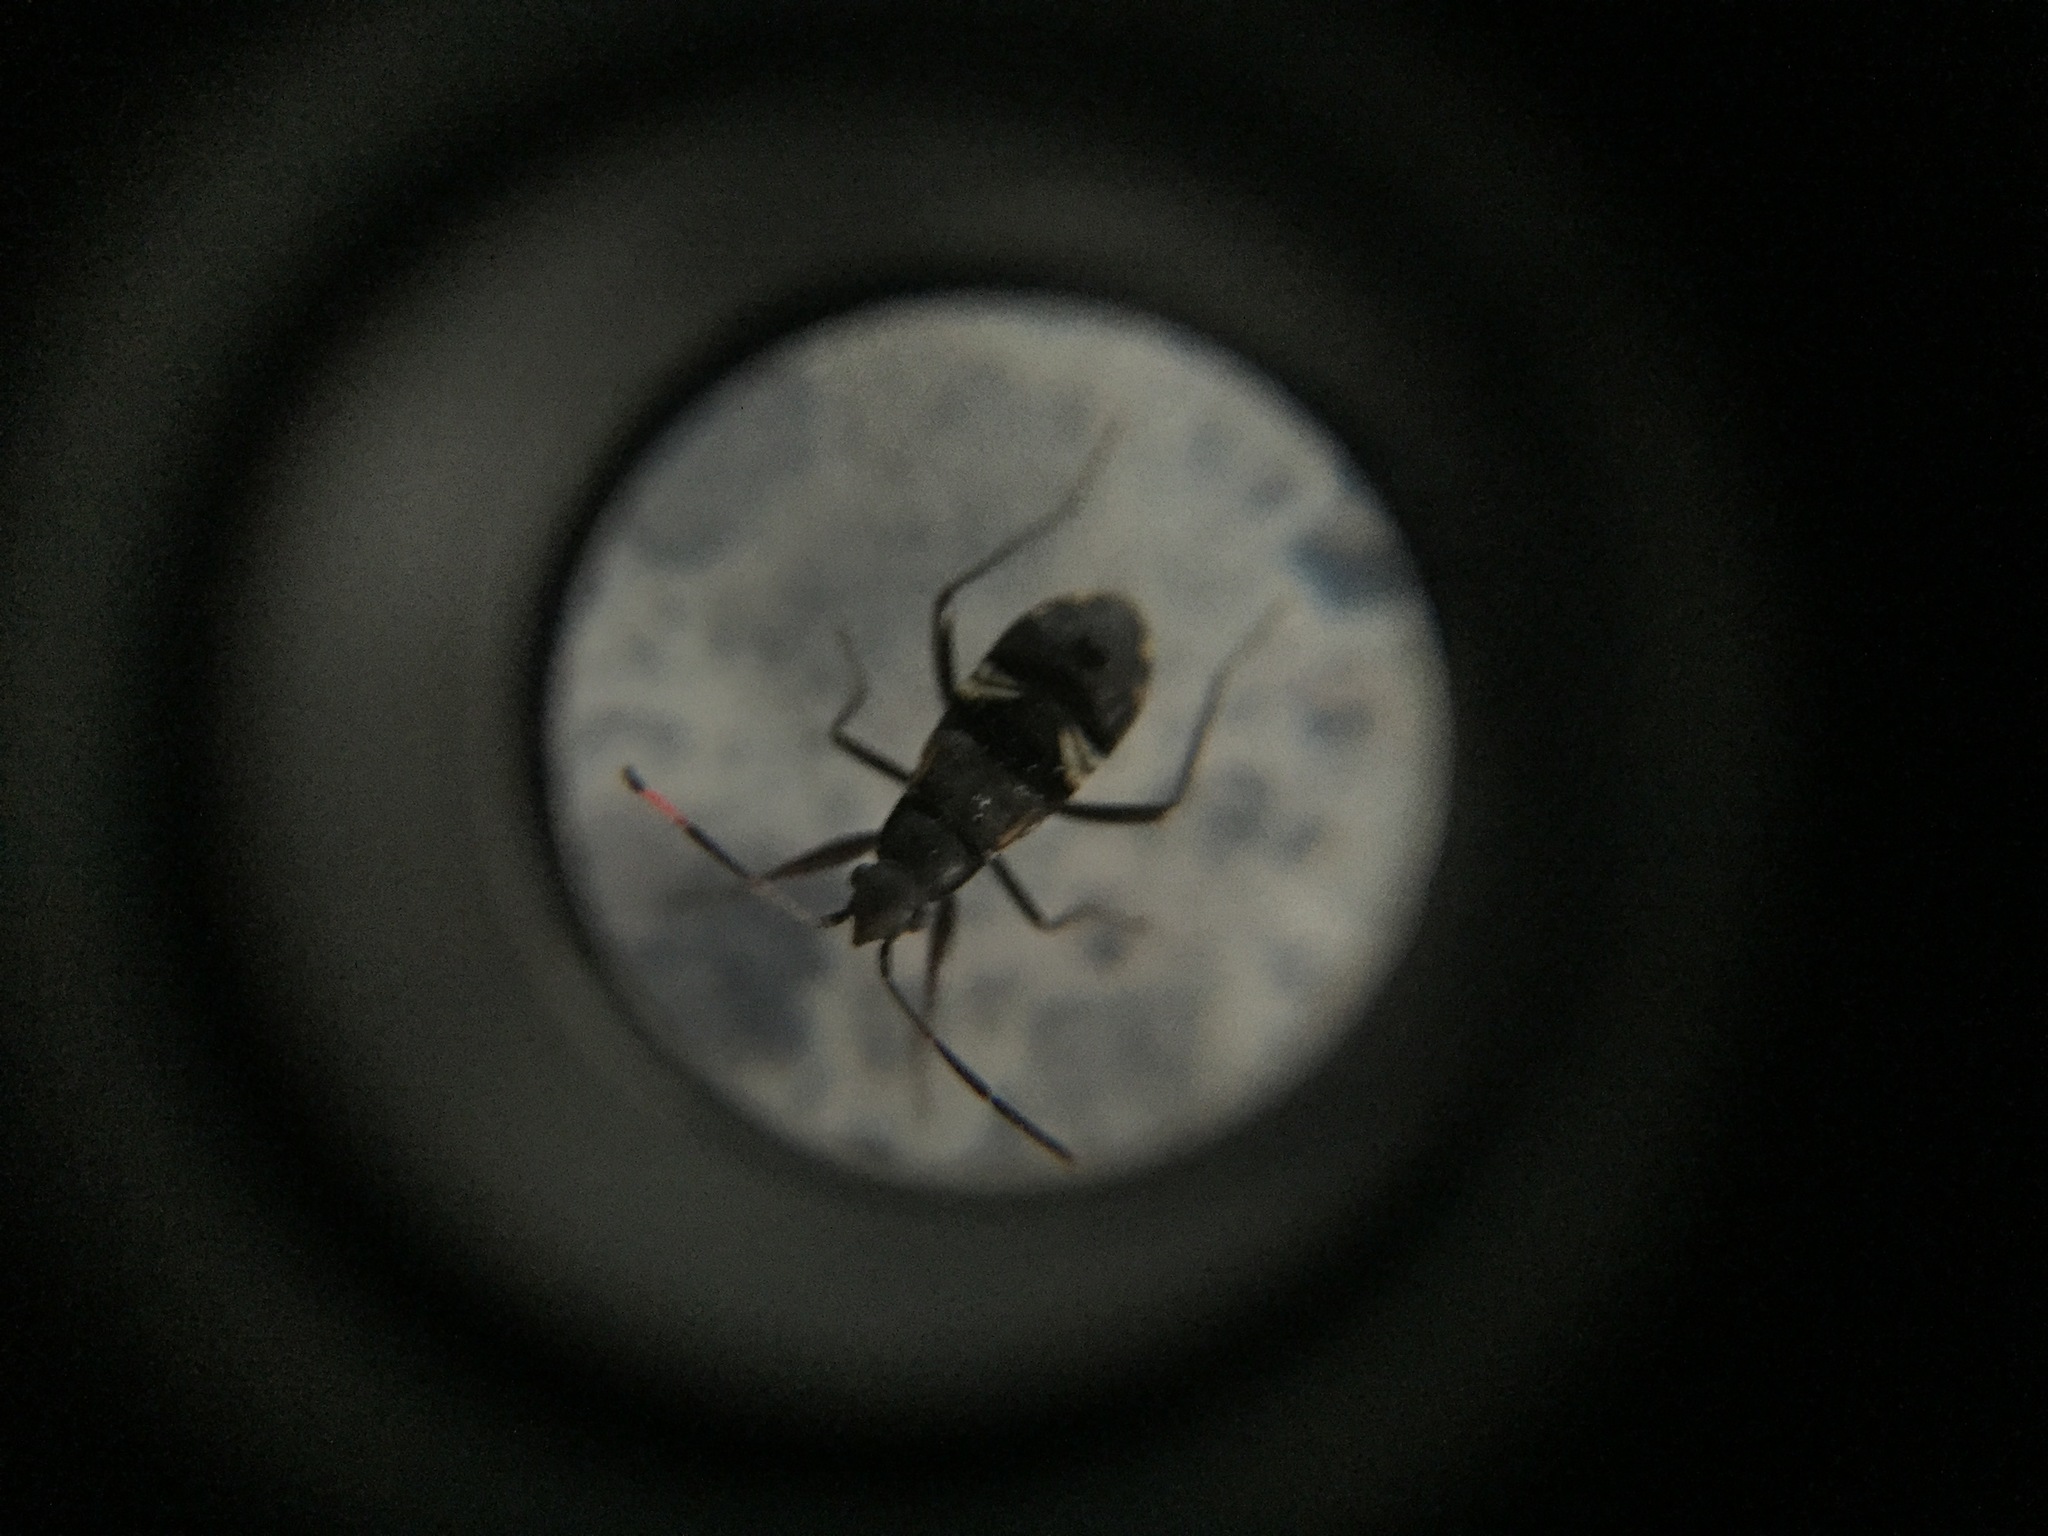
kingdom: Animalia
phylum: Arthropoda
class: Insecta
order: Hemiptera
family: Rhyparochromidae
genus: Horridipamera
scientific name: Horridipamera robusta
